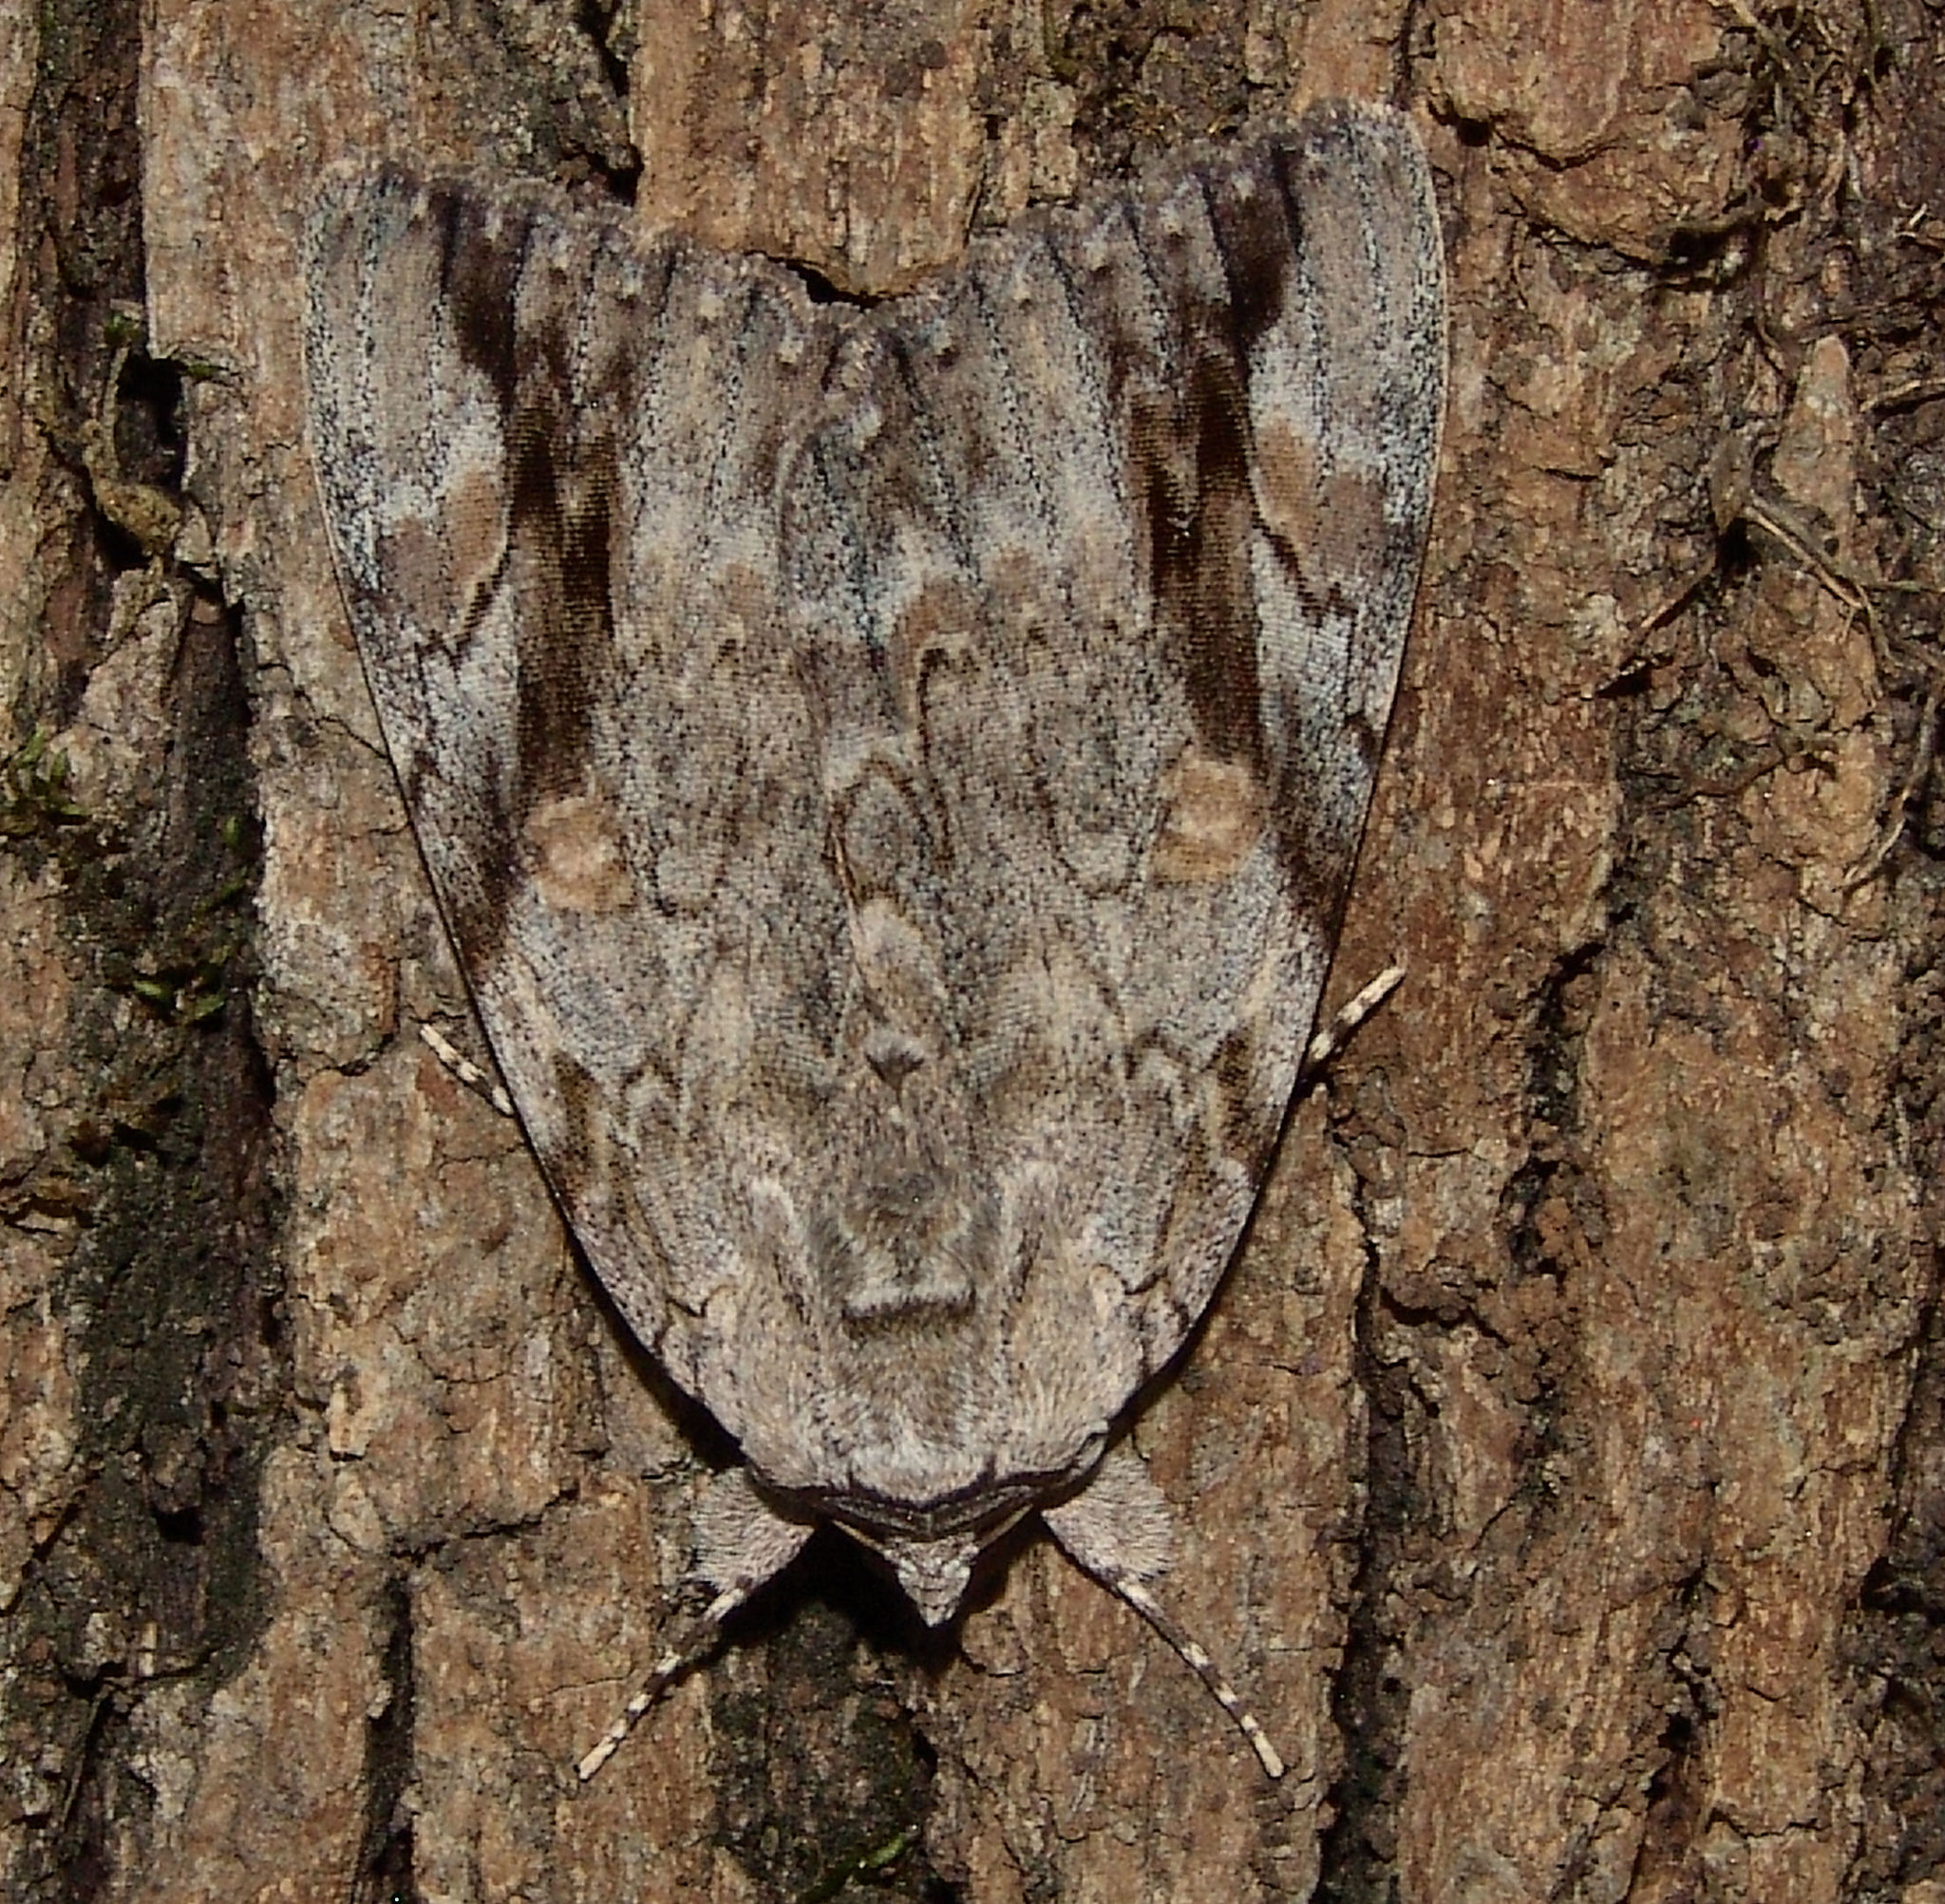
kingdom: Animalia
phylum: Arthropoda
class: Insecta
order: Lepidoptera
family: Erebidae
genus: Catocala
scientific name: Catocala maestosa
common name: Sad underwing
